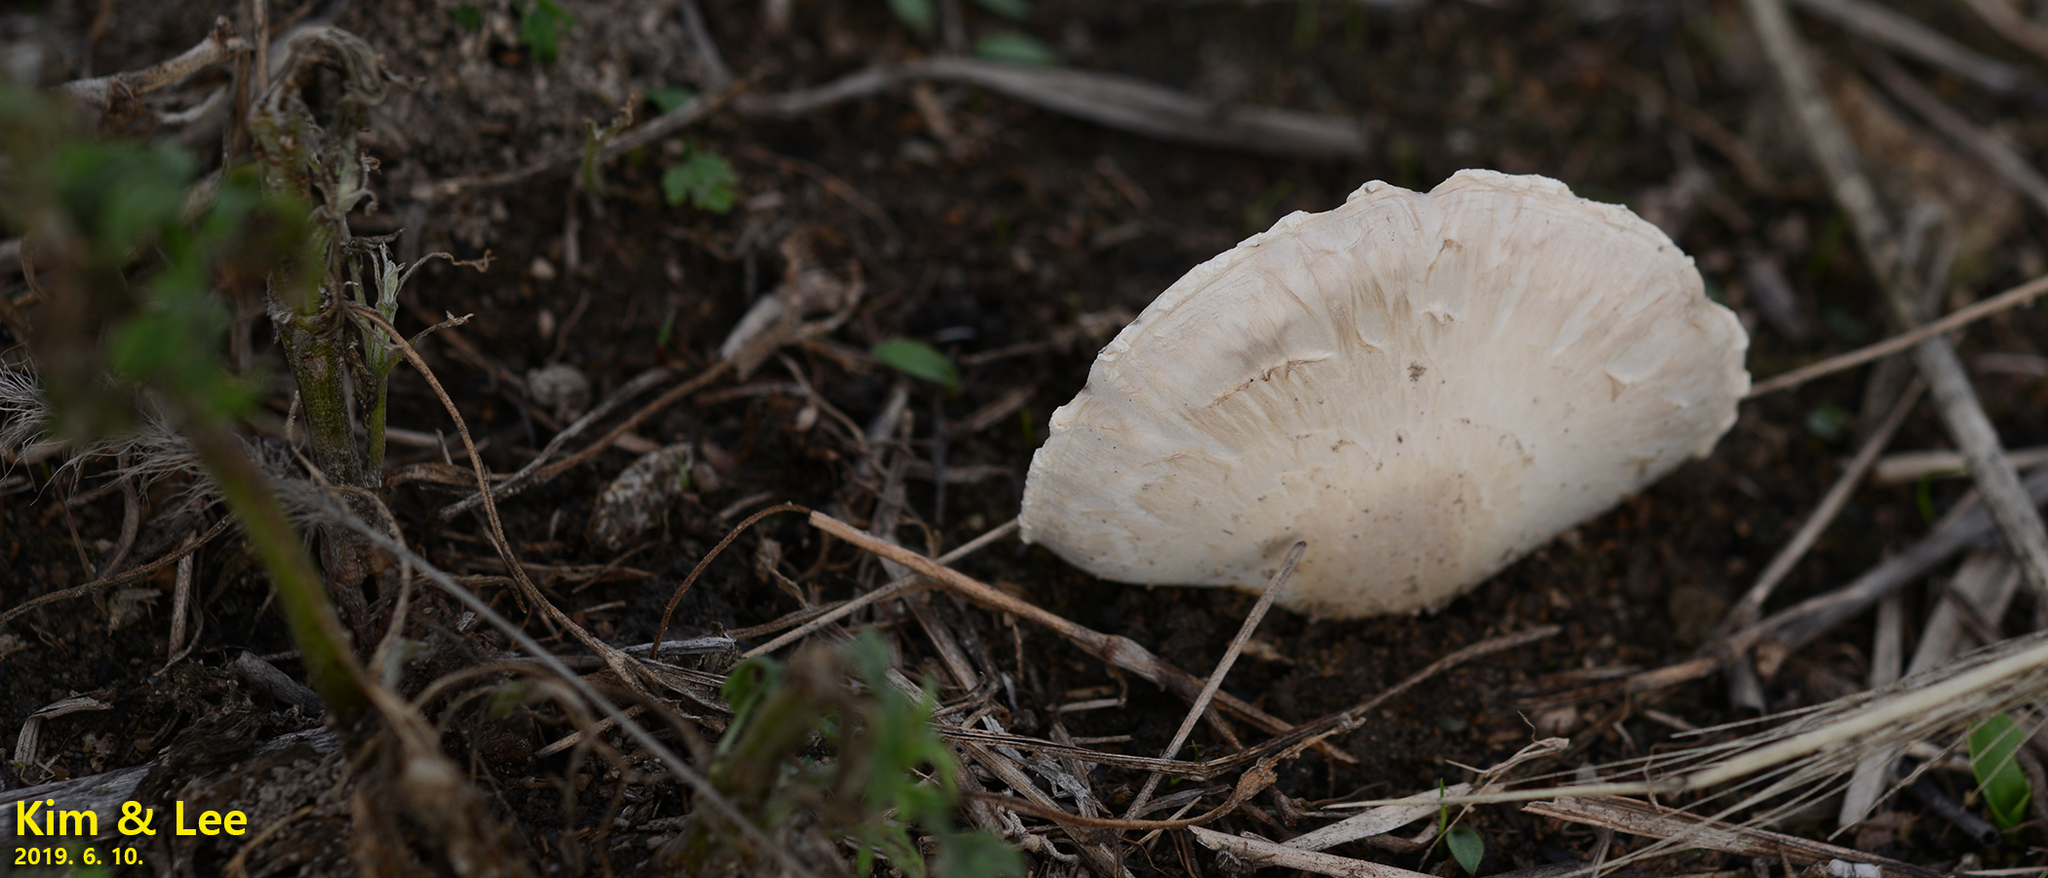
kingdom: Fungi
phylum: Basidiomycota
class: Agaricomycetes
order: Agaricales
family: Agaricaceae
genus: Agaricus
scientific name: Agaricus campestris
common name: Field mushroom
